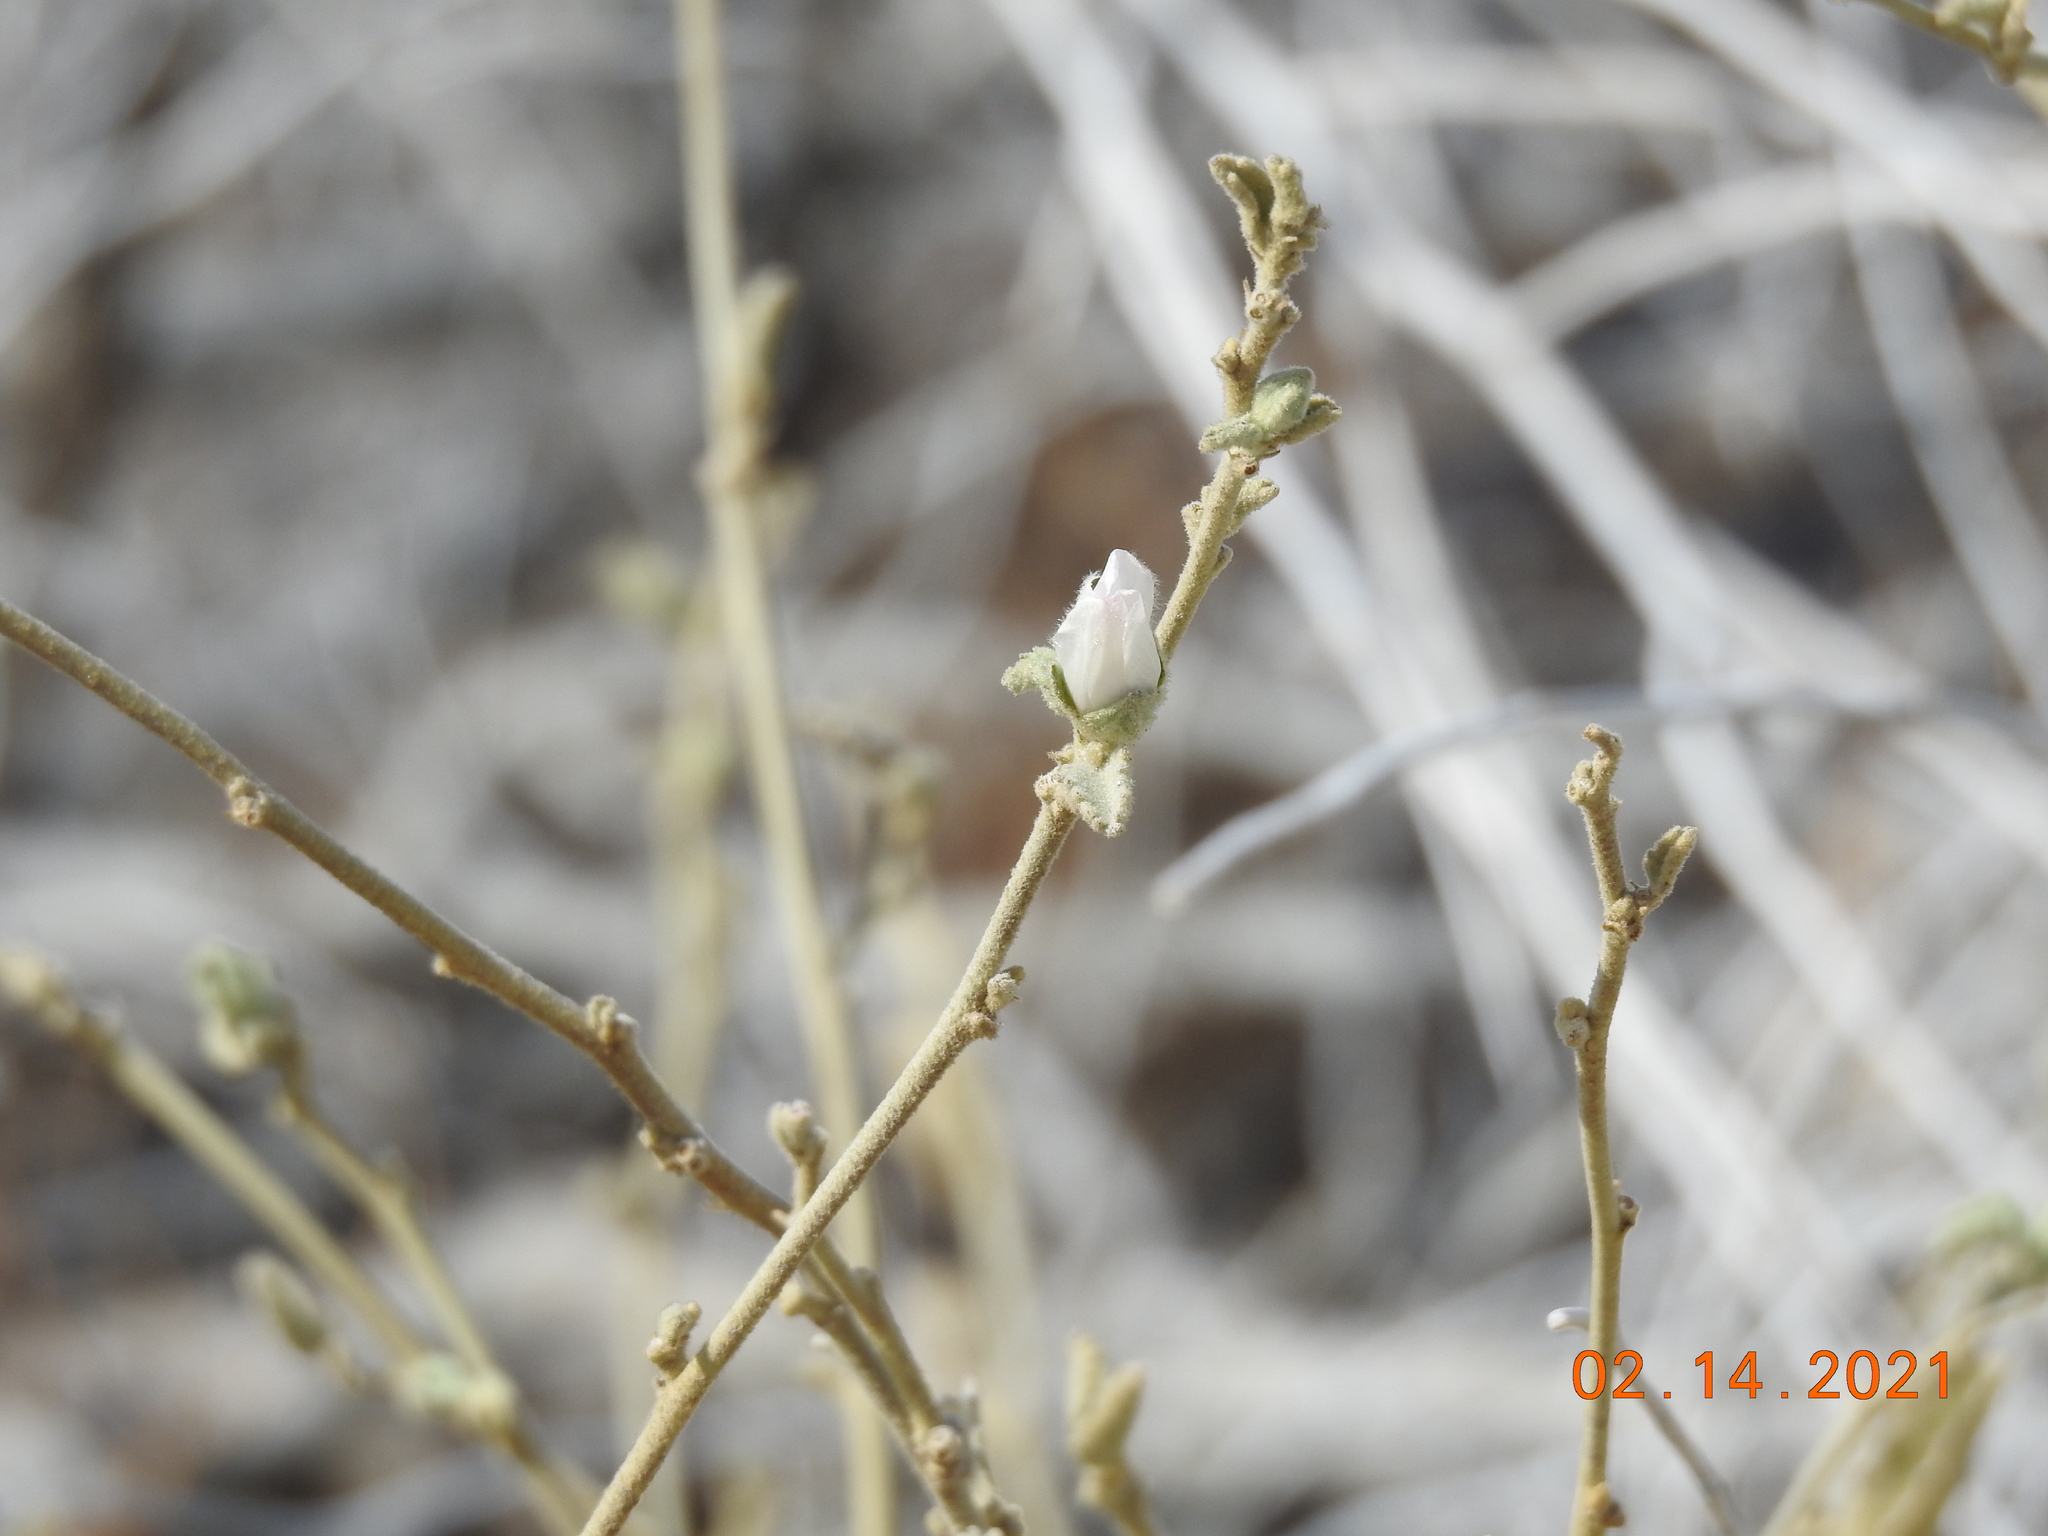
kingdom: Plantae
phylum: Tracheophyta
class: Magnoliopsida
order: Malvales
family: Malvaceae
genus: Hibiscus
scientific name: Hibiscus denudatus
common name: Paleface
